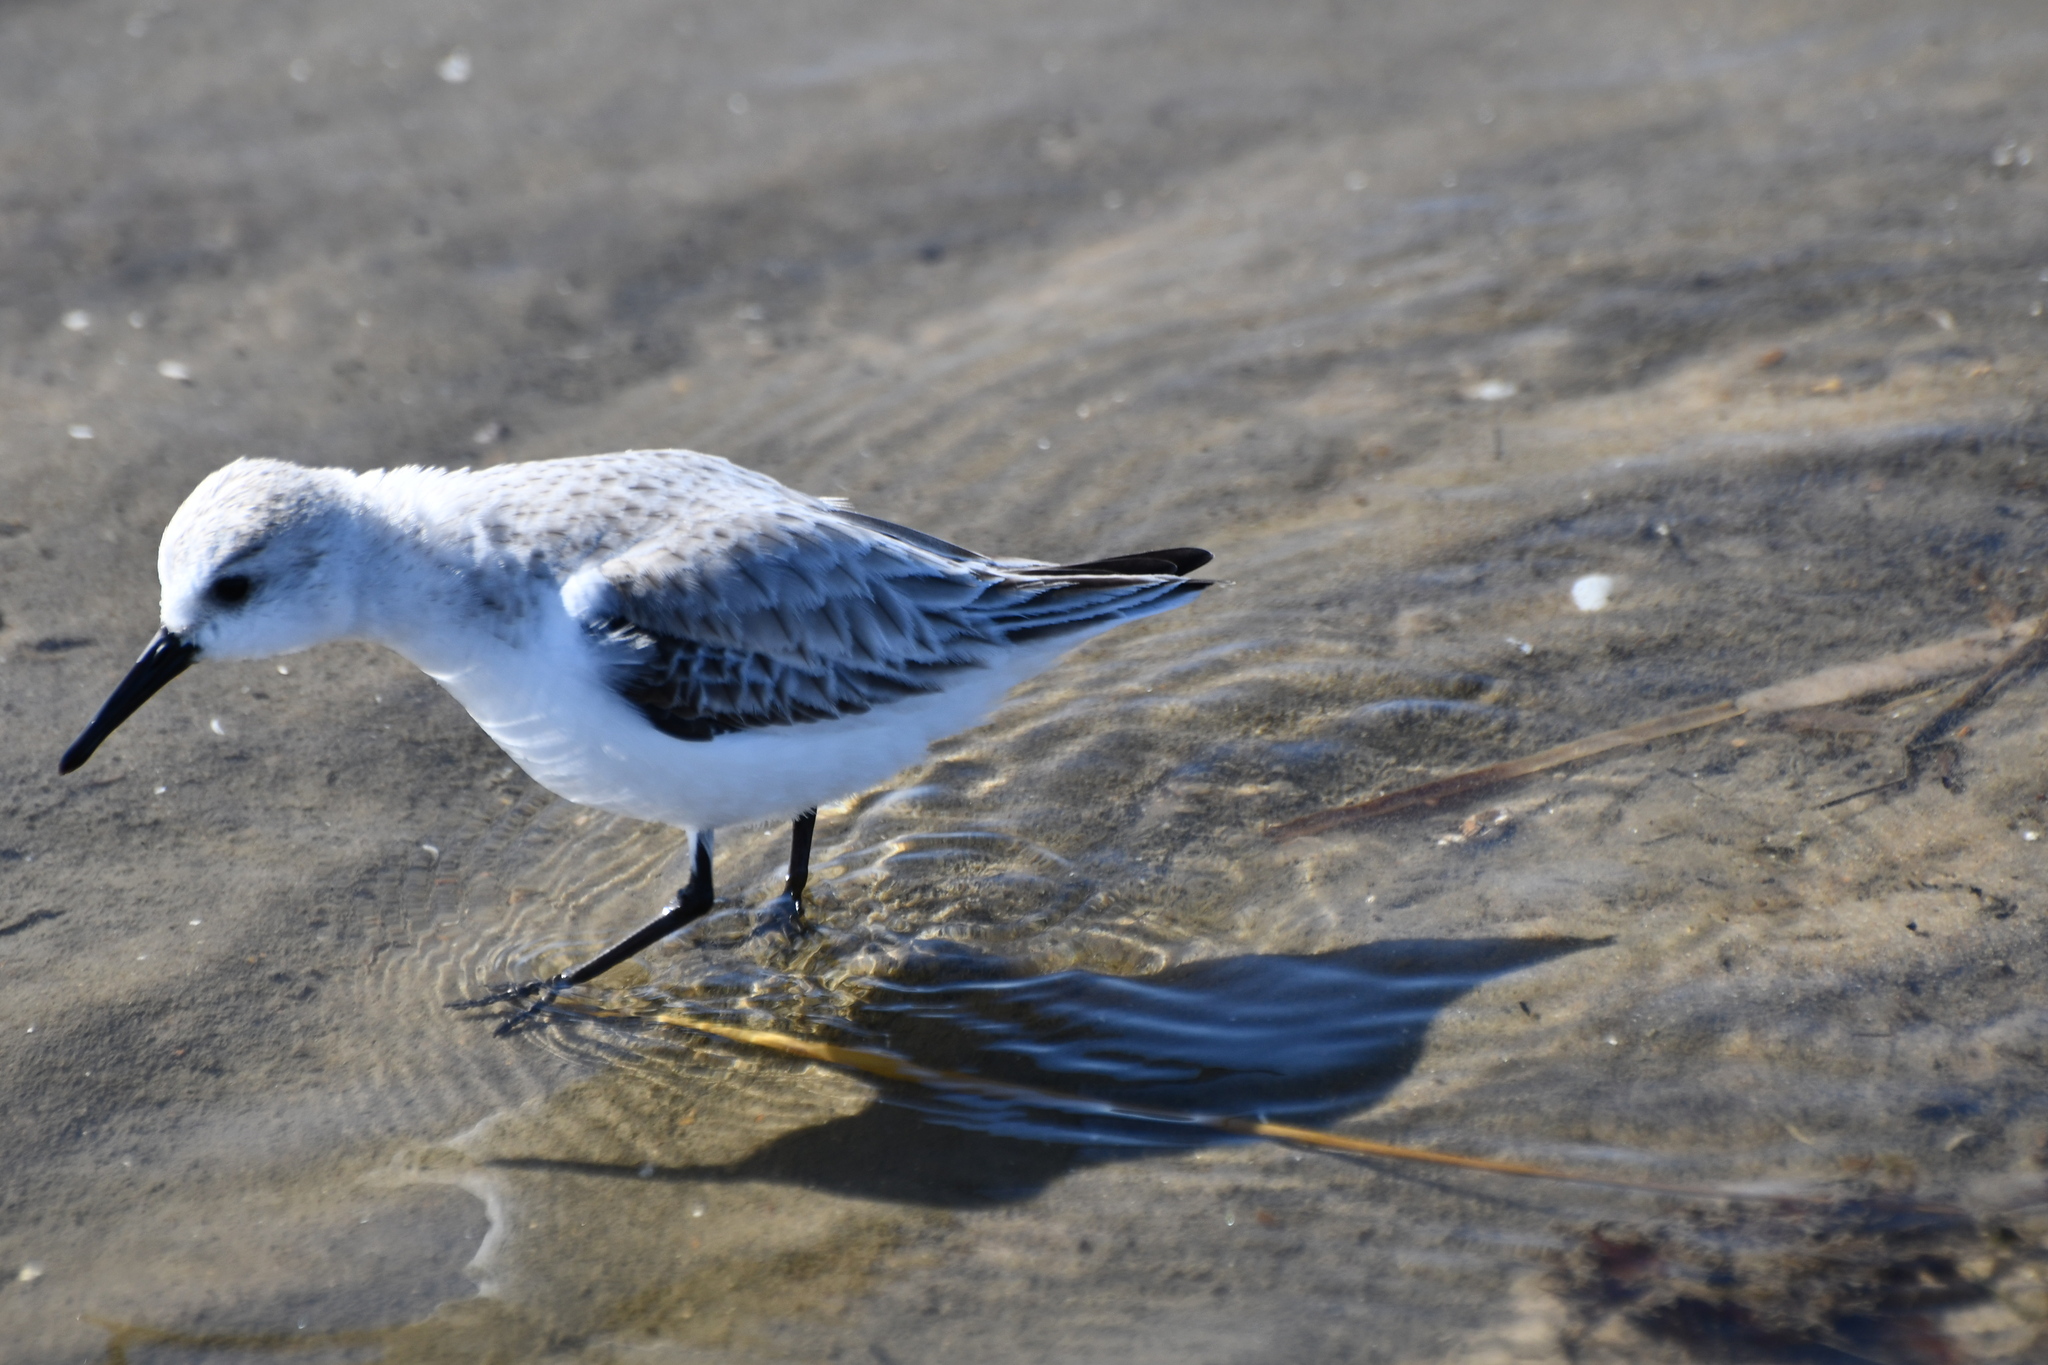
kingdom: Animalia
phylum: Chordata
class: Aves
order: Charadriiformes
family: Scolopacidae
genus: Calidris
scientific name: Calidris alba
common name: Sanderling
